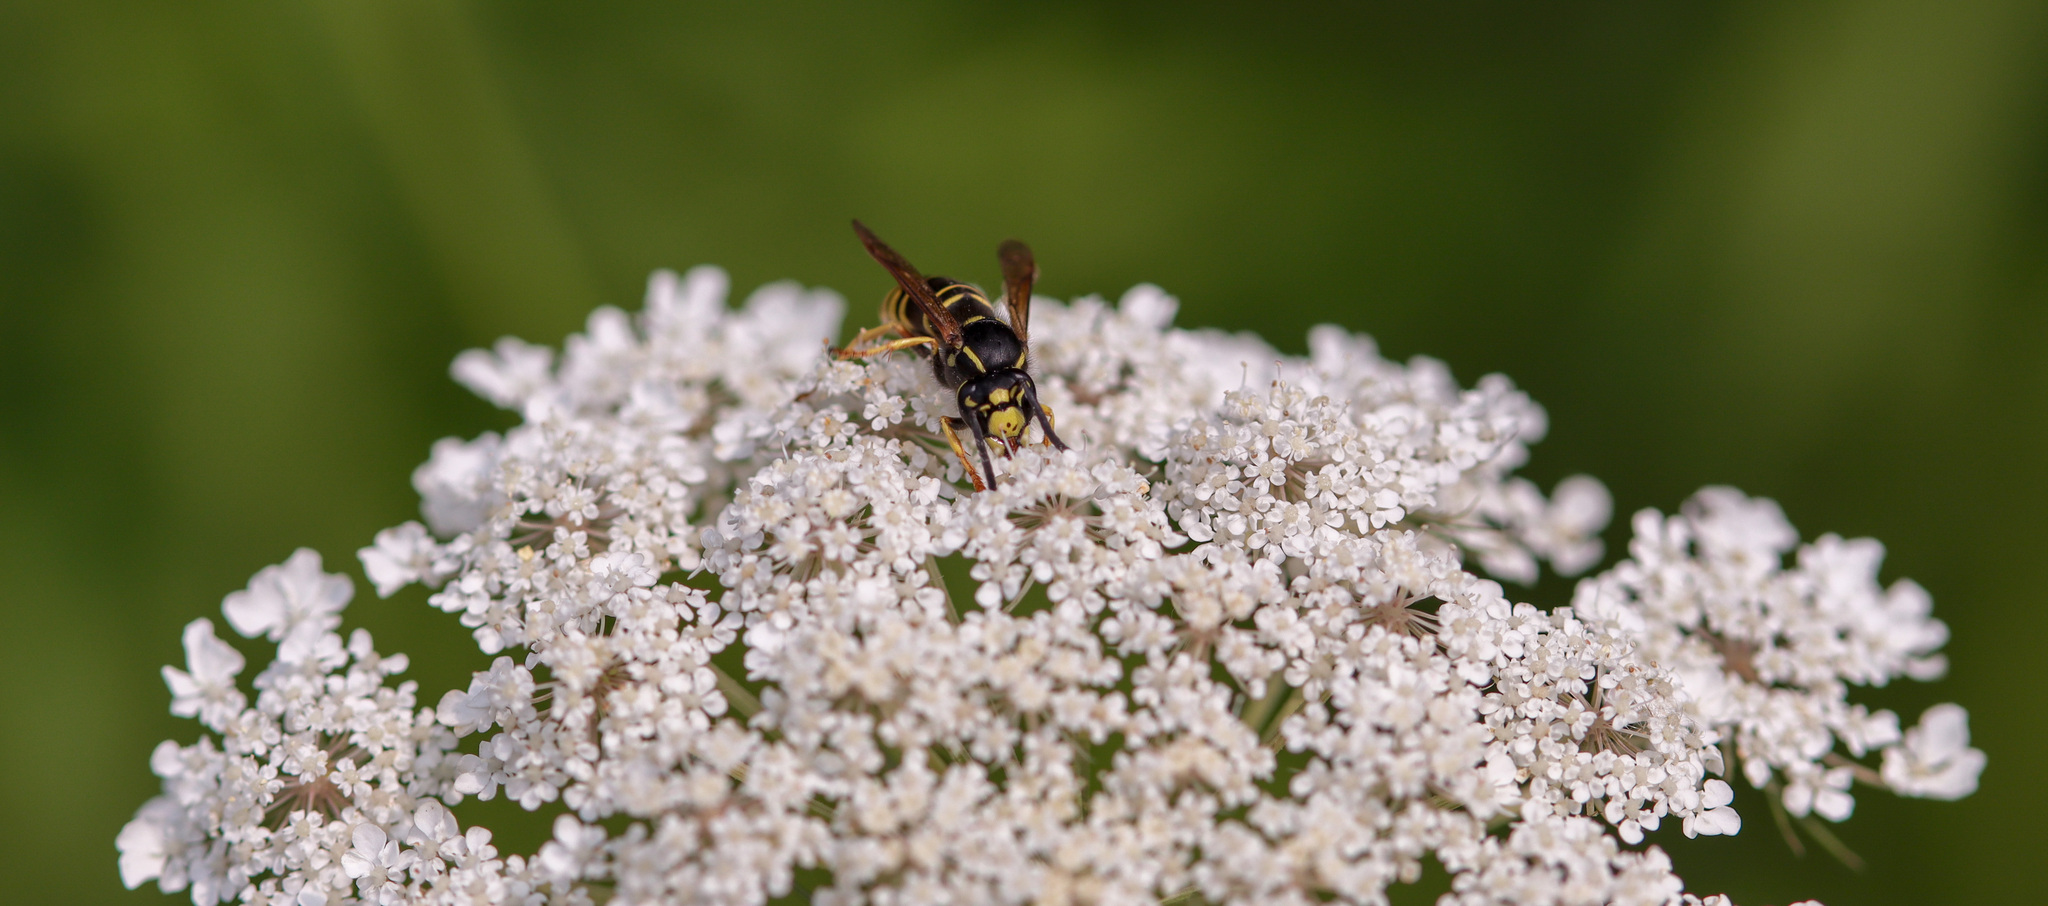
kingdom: Animalia
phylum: Arthropoda
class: Insecta
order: Hymenoptera
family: Vespidae
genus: Vespula
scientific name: Vespula vidua
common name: Widow yellowjacket
